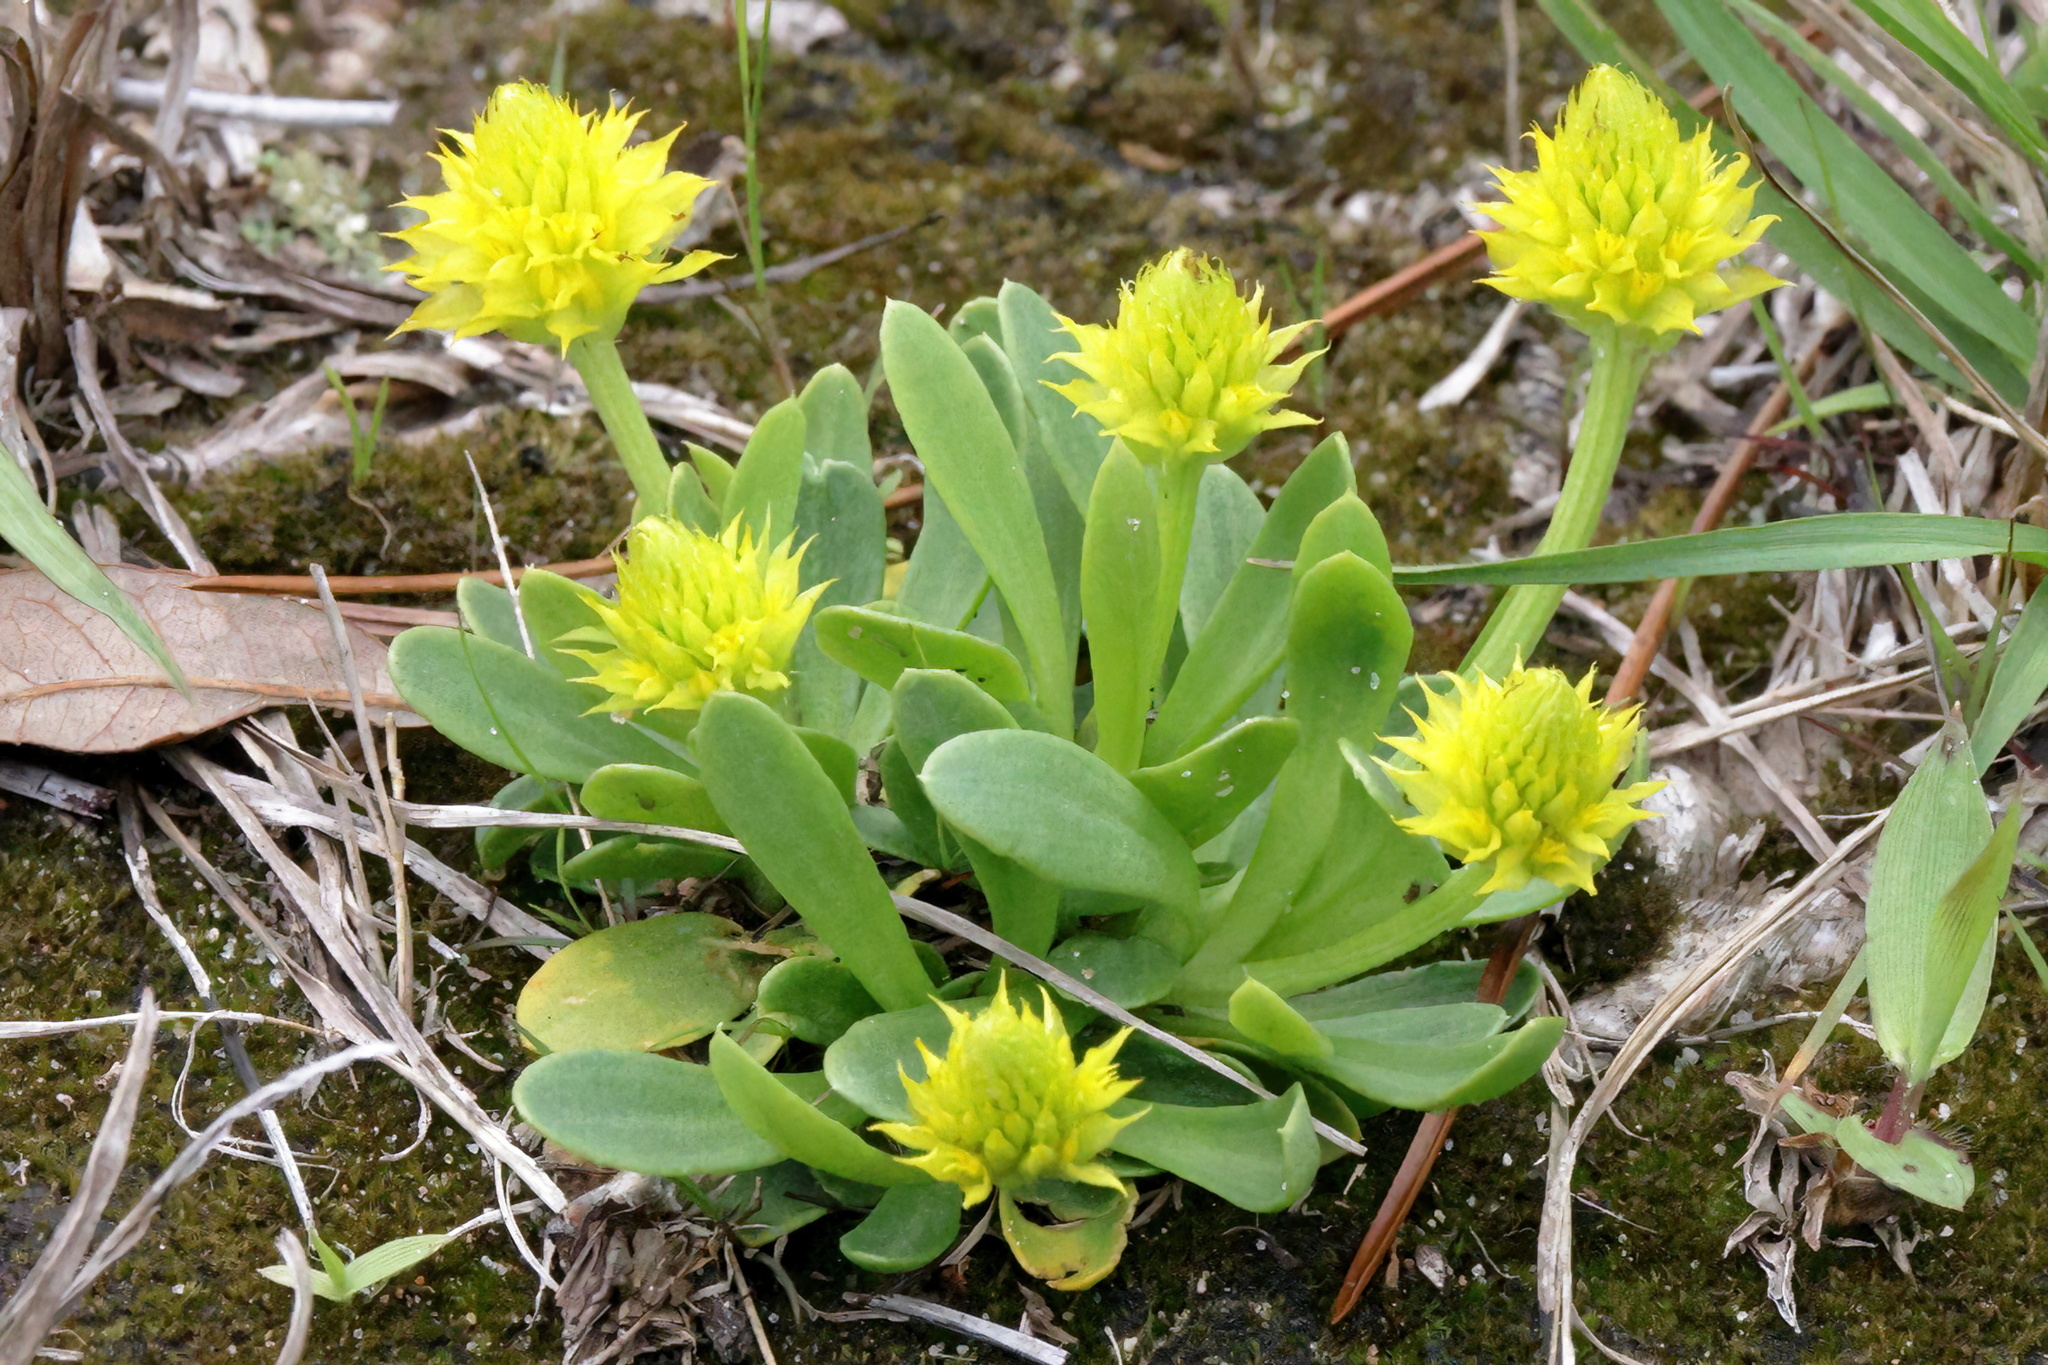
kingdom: Plantae
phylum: Tracheophyta
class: Magnoliopsida
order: Fabales
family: Polygalaceae
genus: Polygala
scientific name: Polygala nana
